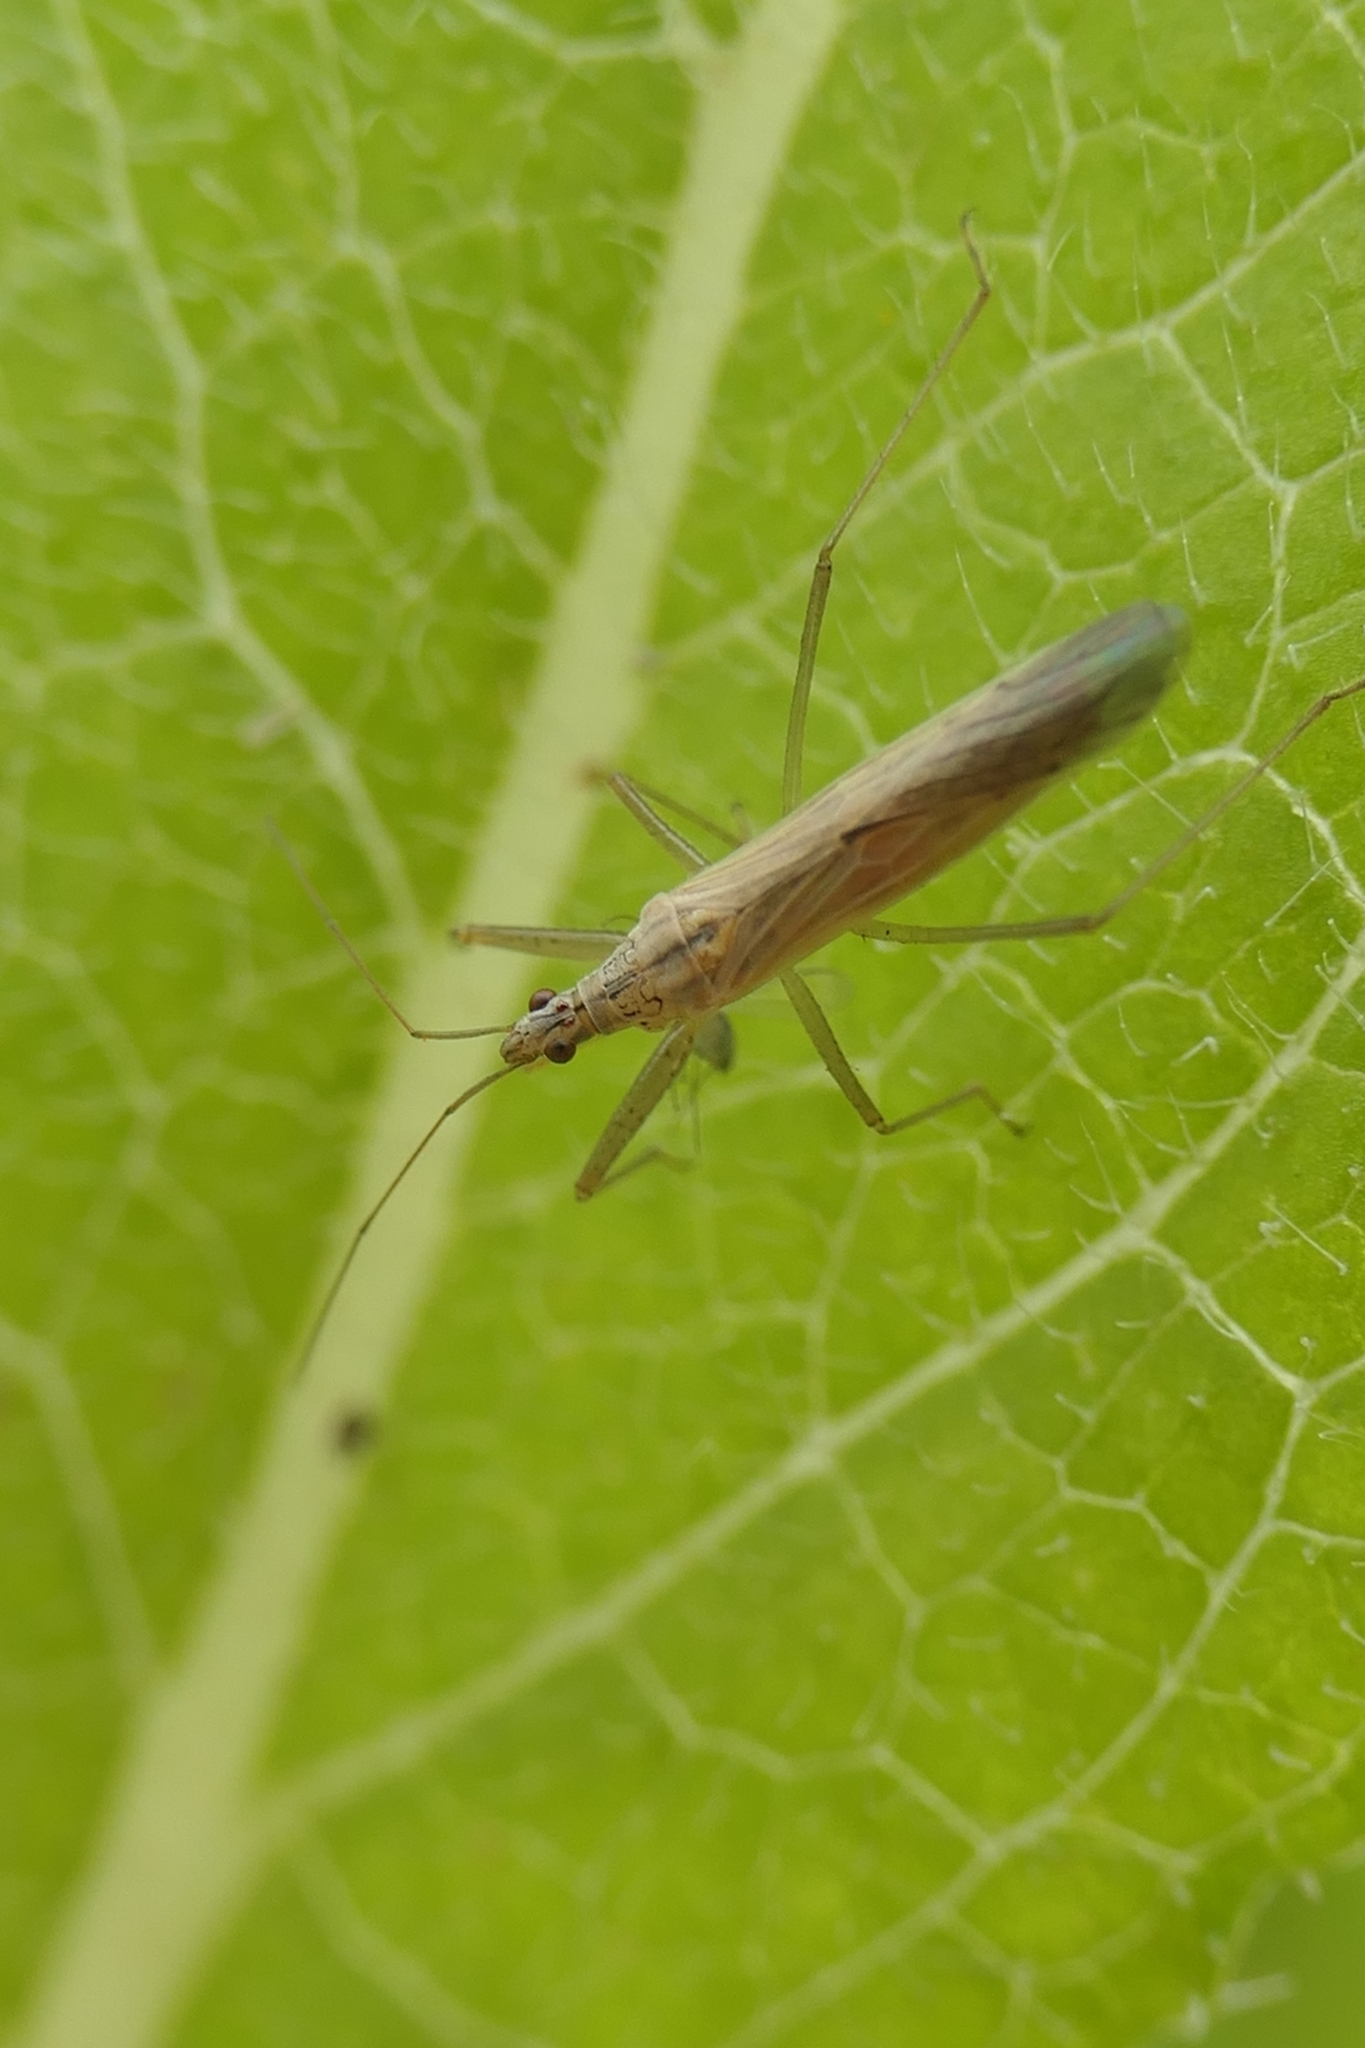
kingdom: Animalia
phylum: Arthropoda
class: Insecta
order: Hemiptera
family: Nabidae
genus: Nabis
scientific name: Nabis kinbergii
